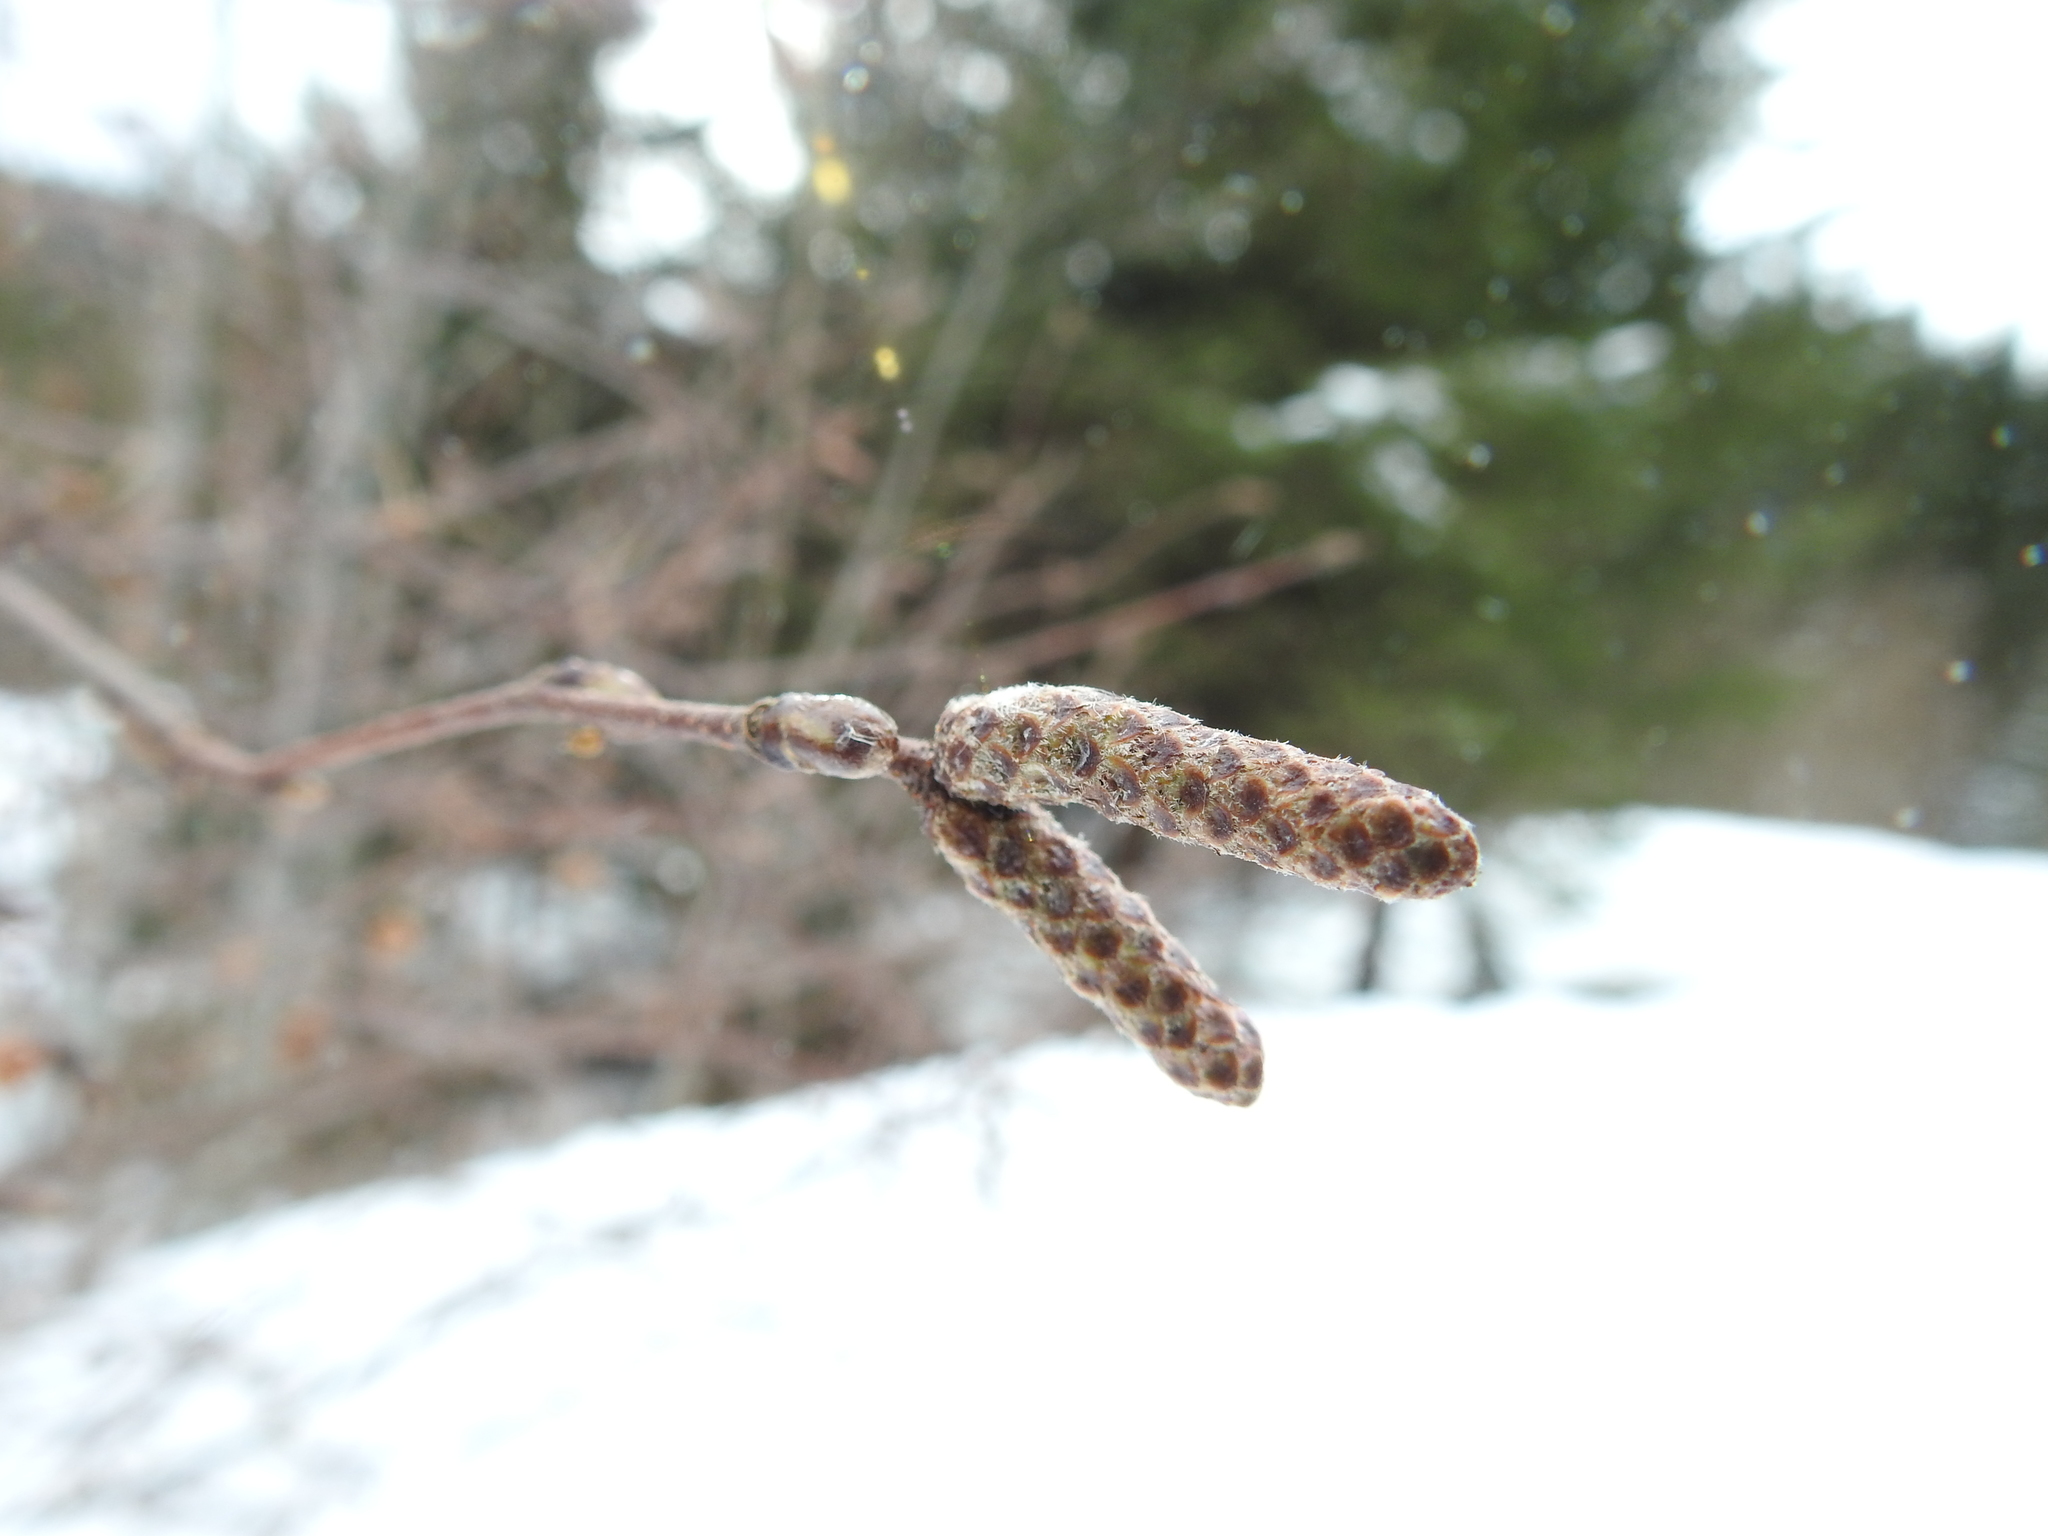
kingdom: Plantae
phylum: Tracheophyta
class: Magnoliopsida
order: Fagales
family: Betulaceae
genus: Corylus
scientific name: Corylus avellana
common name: European hazel
